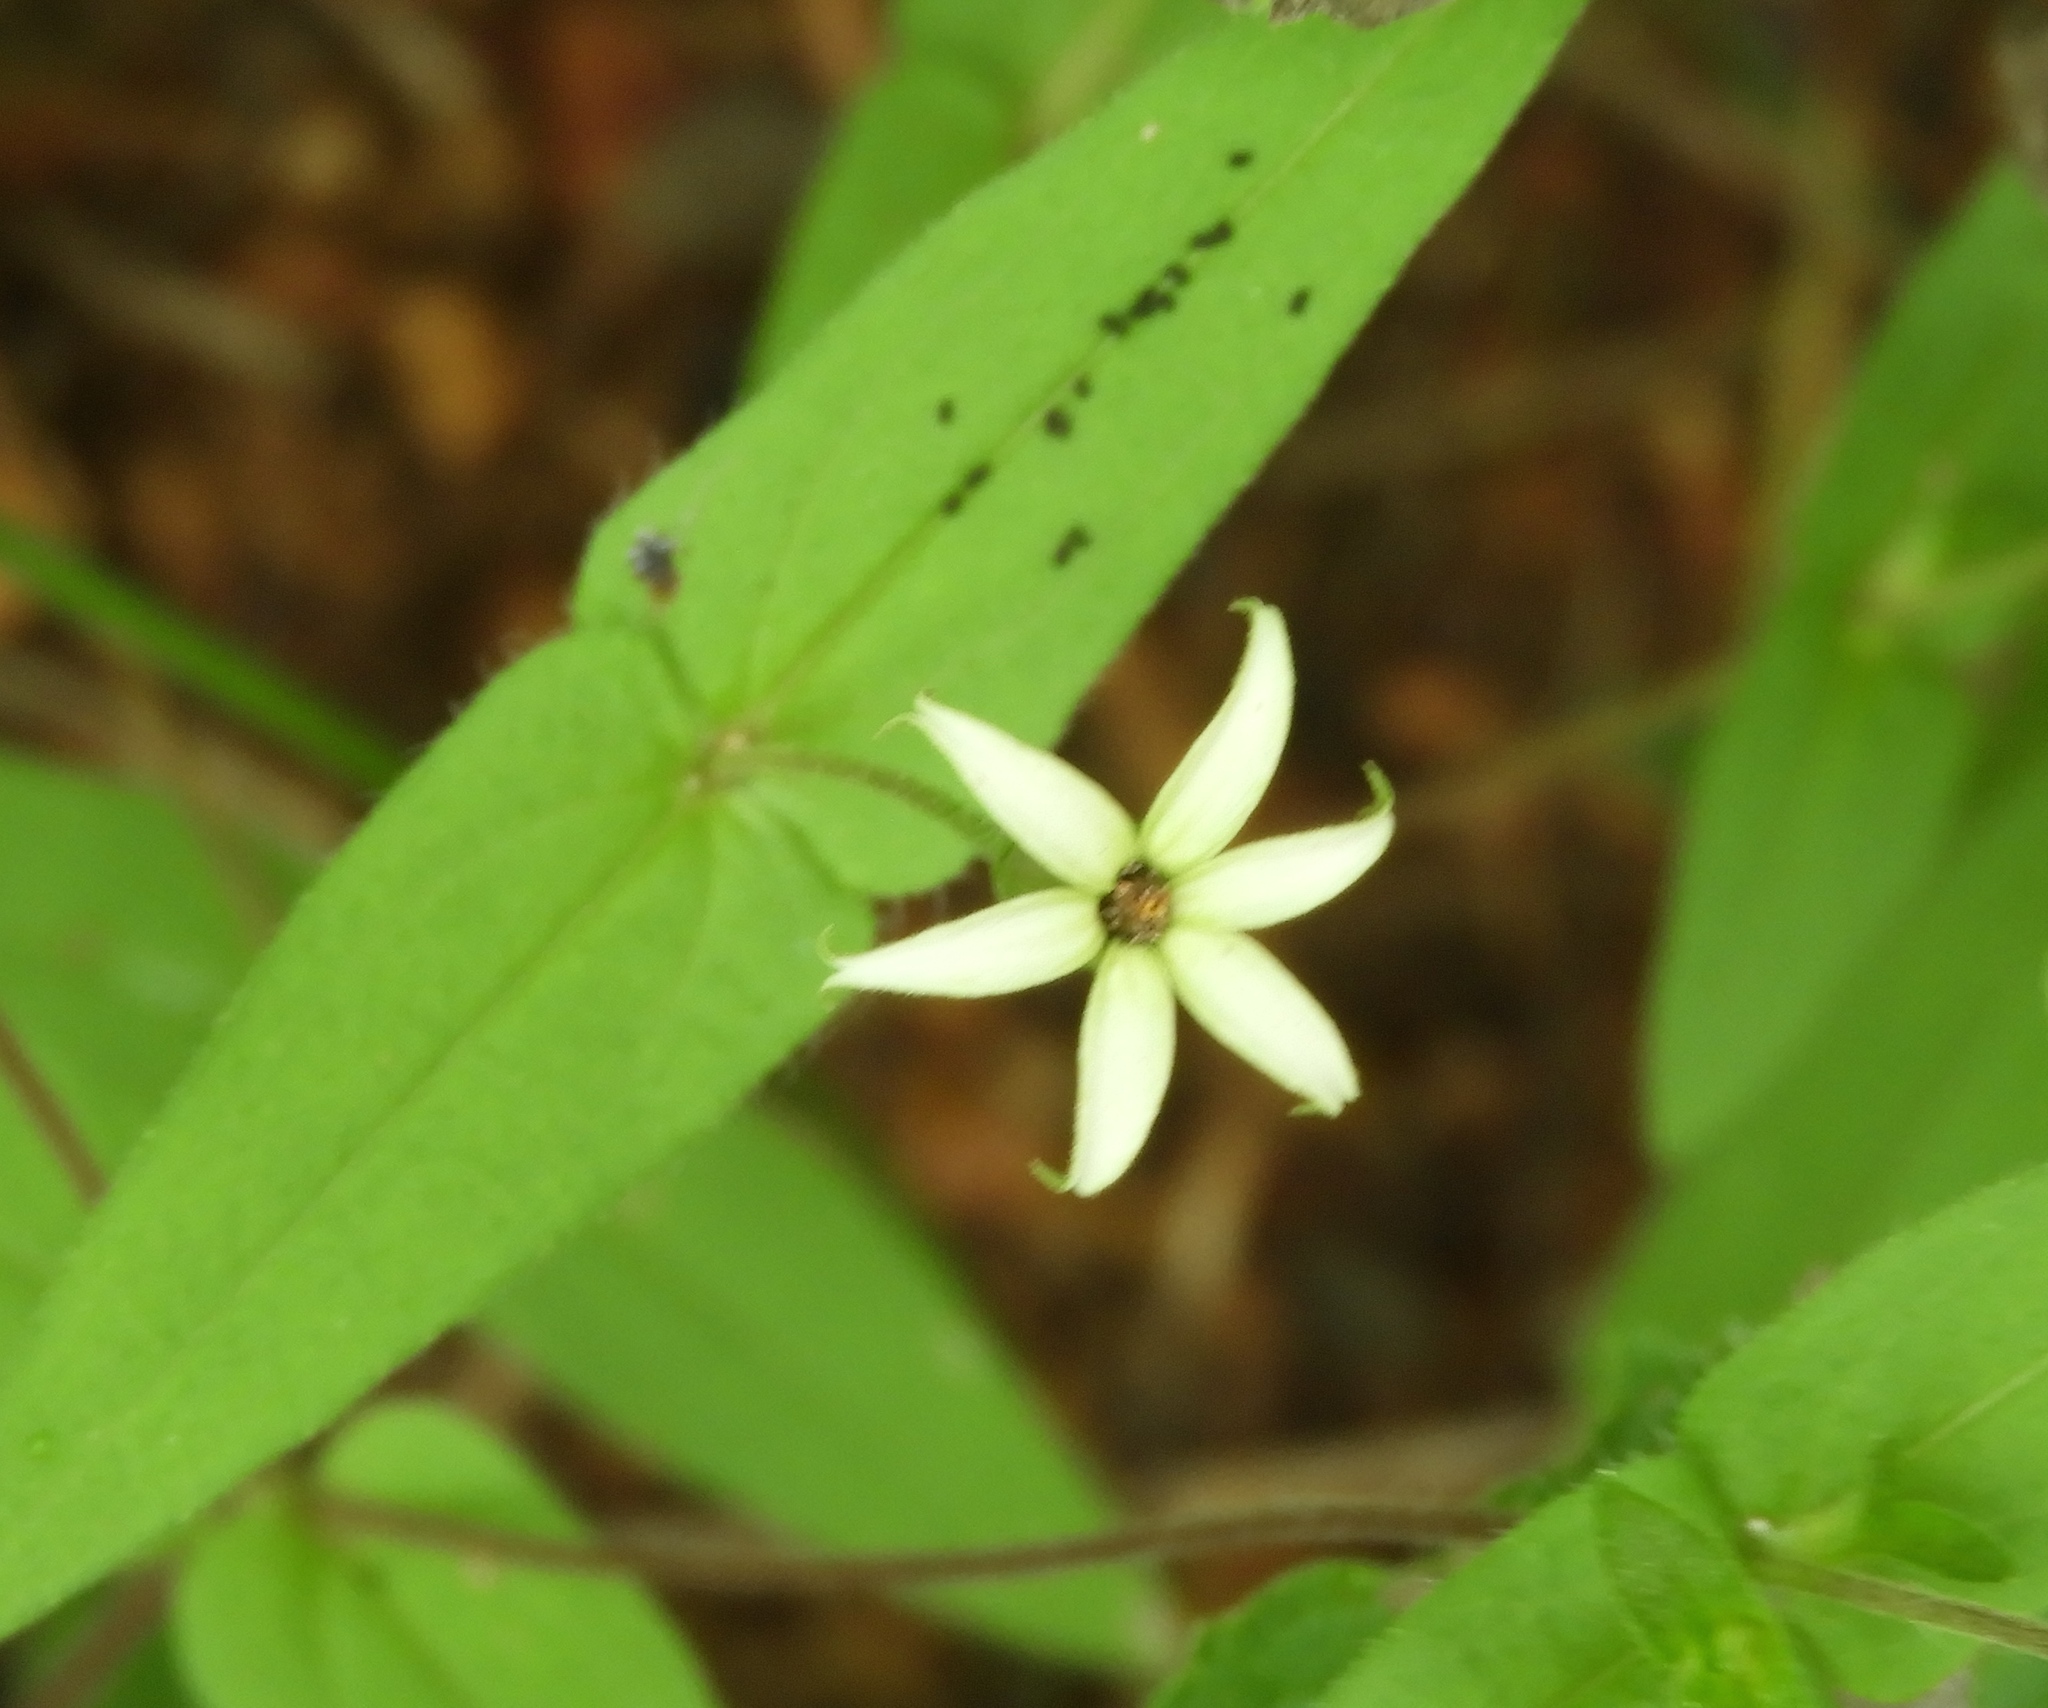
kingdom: Plantae
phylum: Tracheophyta
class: Magnoliopsida
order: Asterales
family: Asteraceae
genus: Zinnia
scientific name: Zinnia zinnioides
